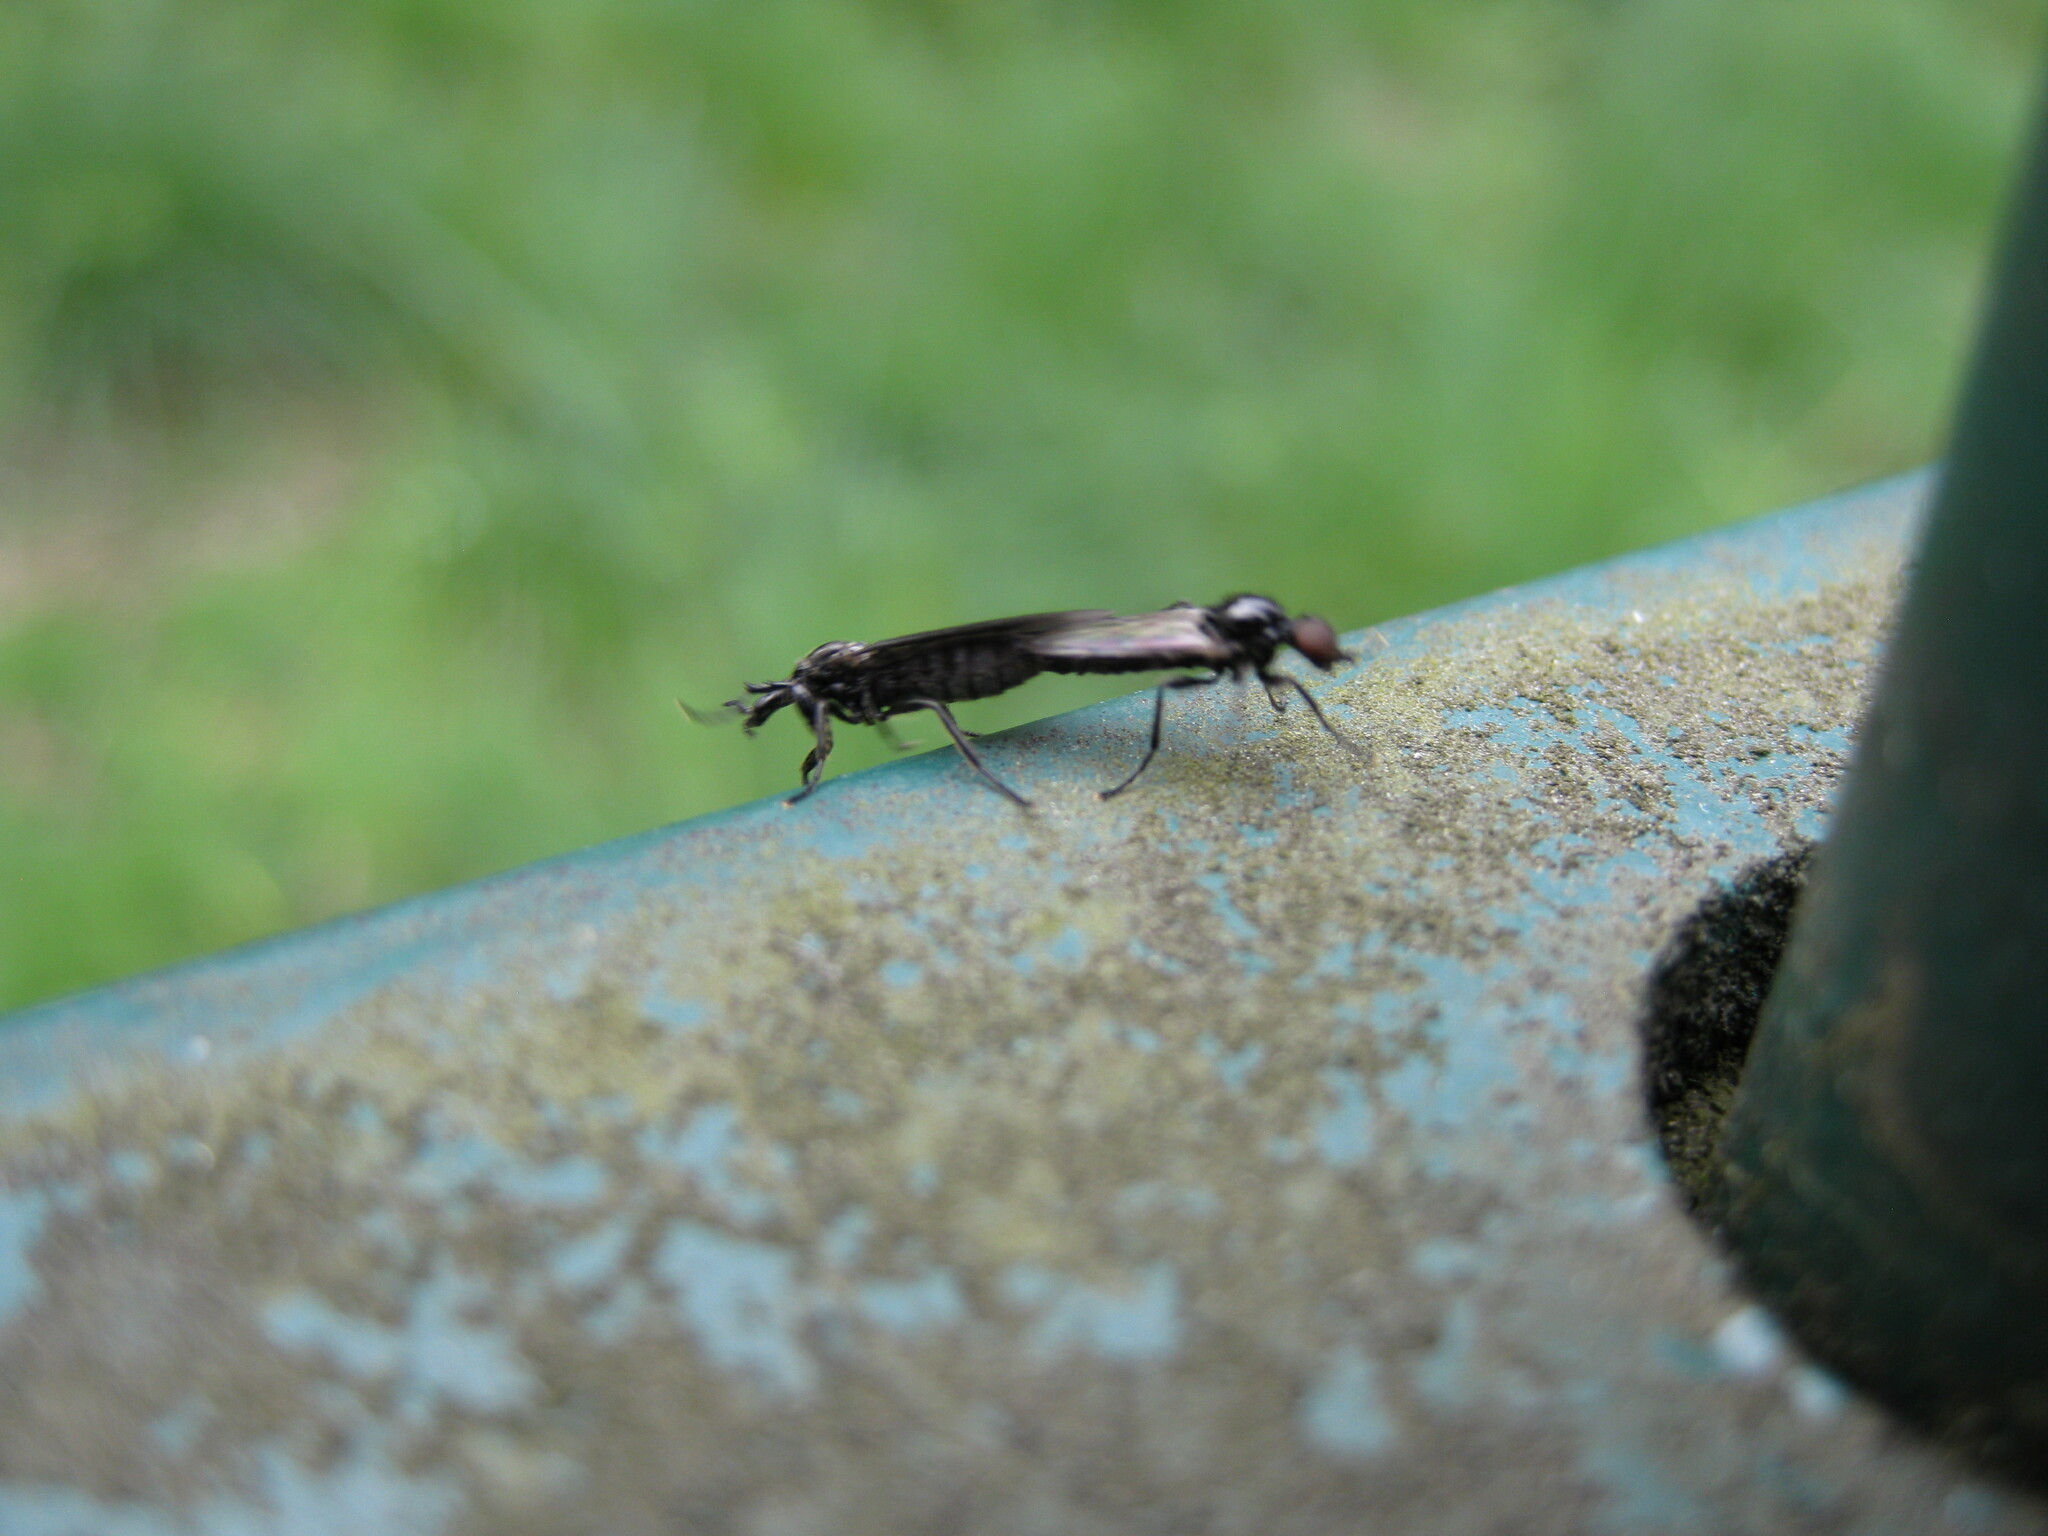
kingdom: Animalia
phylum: Arthropoda
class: Insecta
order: Diptera
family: Bibionidae
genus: Dilophus
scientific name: Dilophus febrilis
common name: Fever fly
